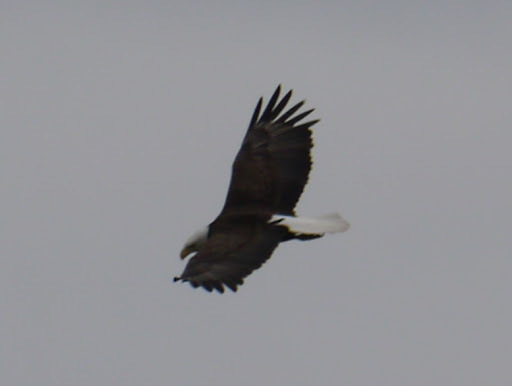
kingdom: Animalia
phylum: Chordata
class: Aves
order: Accipitriformes
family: Accipitridae
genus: Haliaeetus
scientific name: Haliaeetus leucocephalus
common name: Bald eagle
